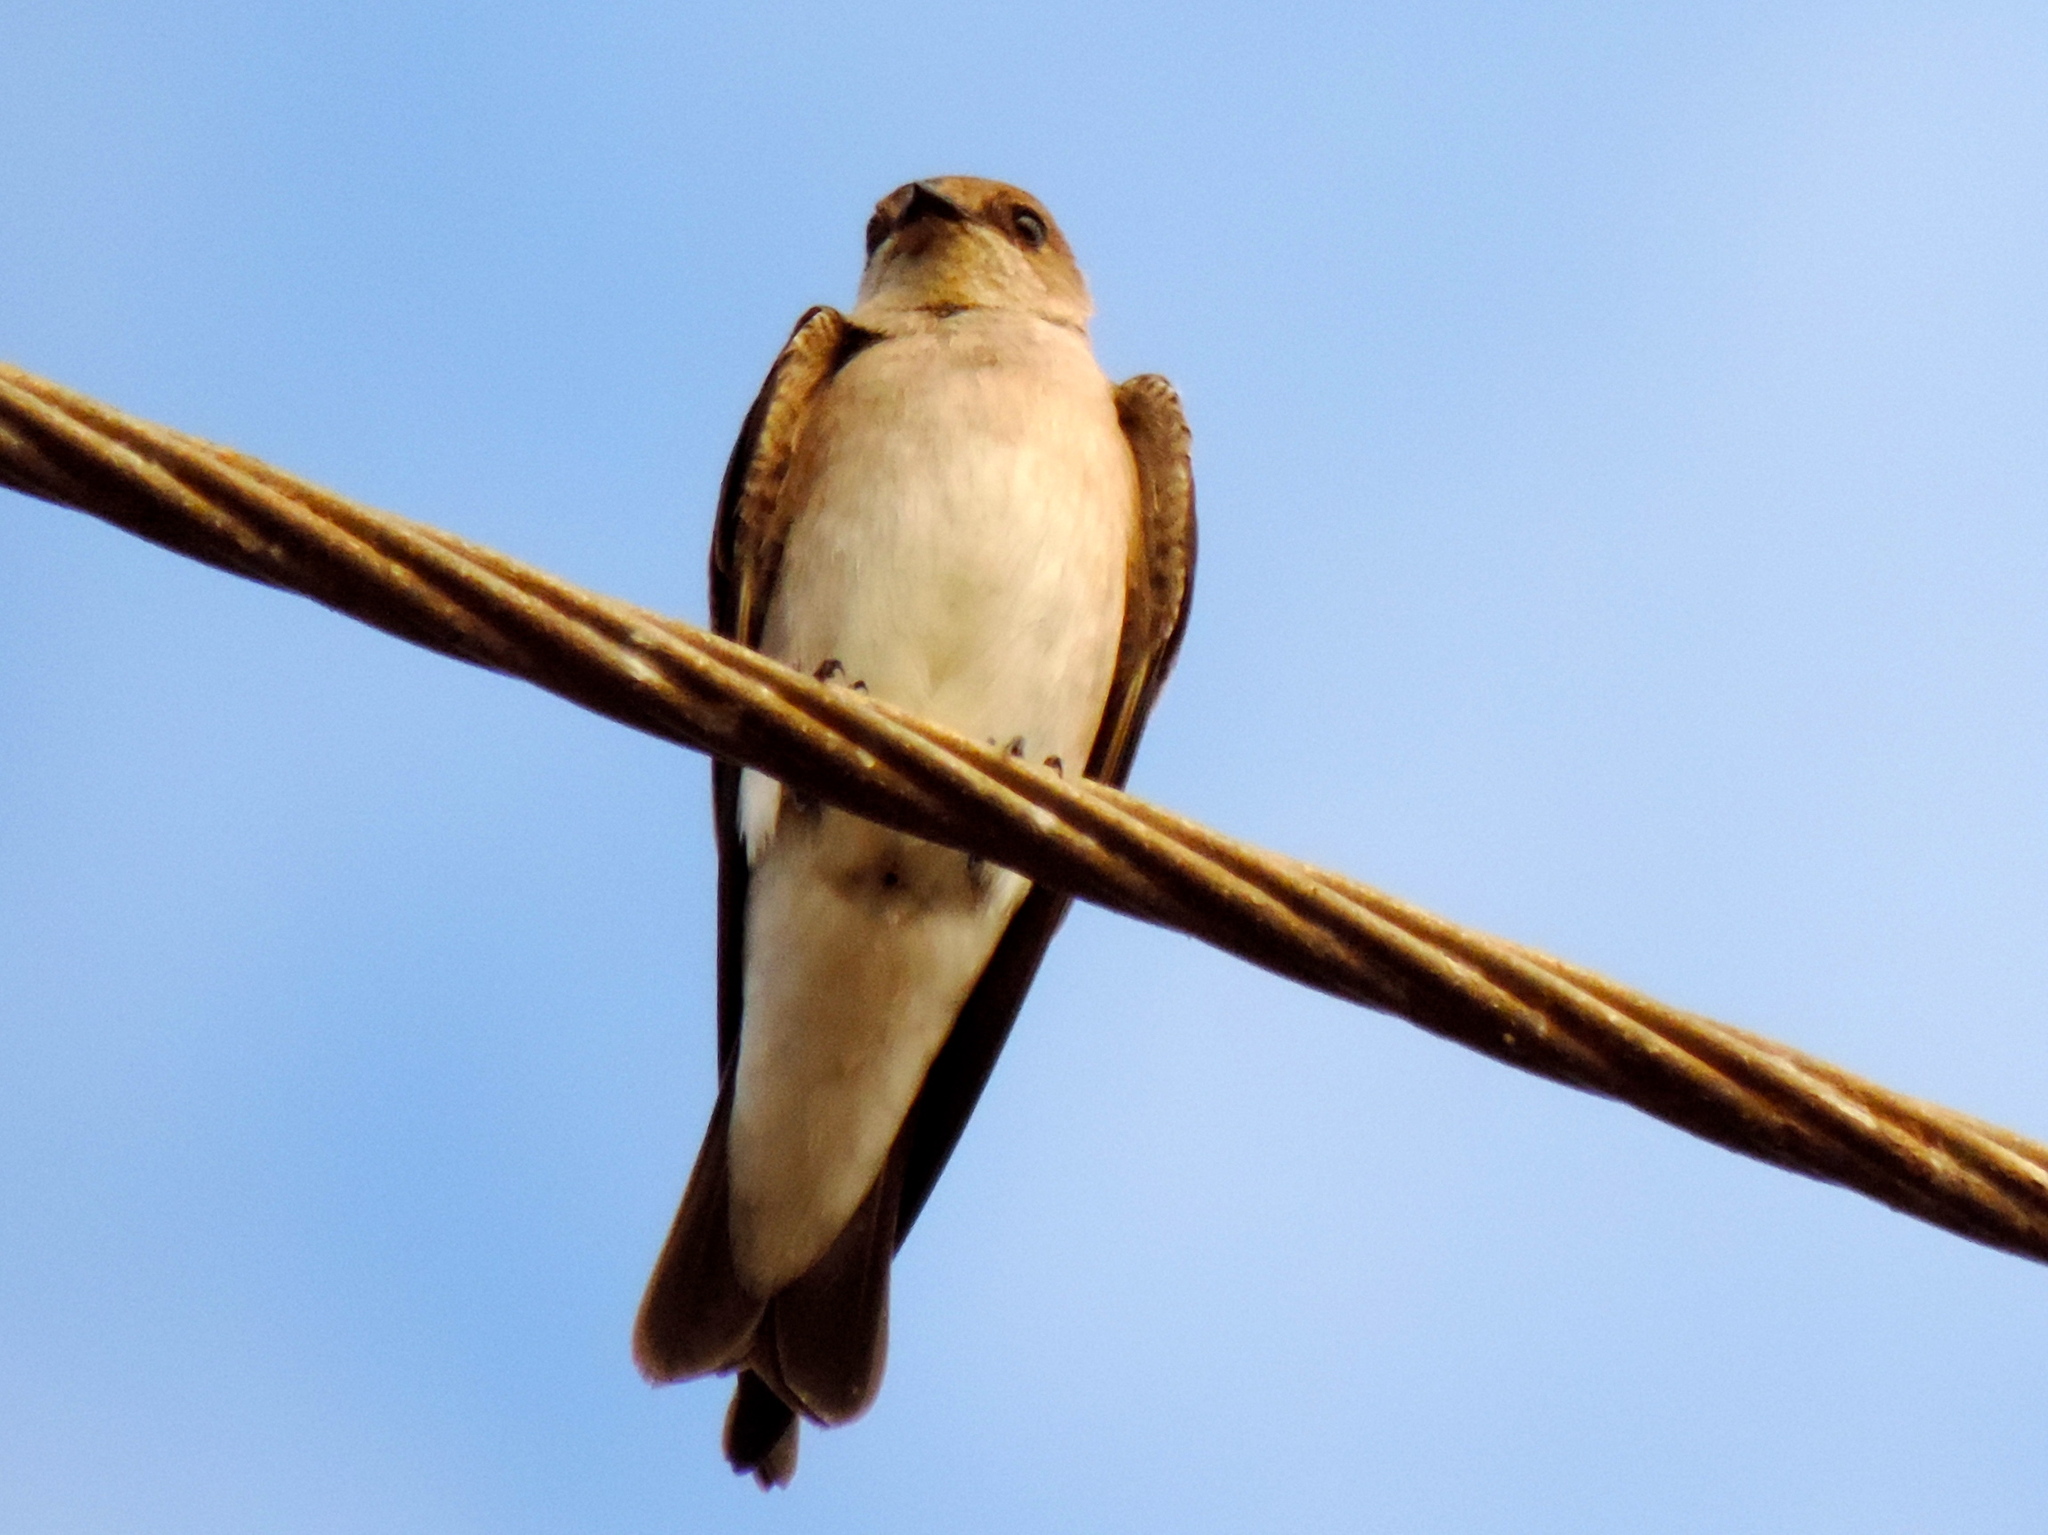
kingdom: Animalia
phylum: Chordata
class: Aves
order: Passeriformes
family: Hirundinidae
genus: Stelgidopteryx
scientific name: Stelgidopteryx serripennis
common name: Northern rough-winged swallow
